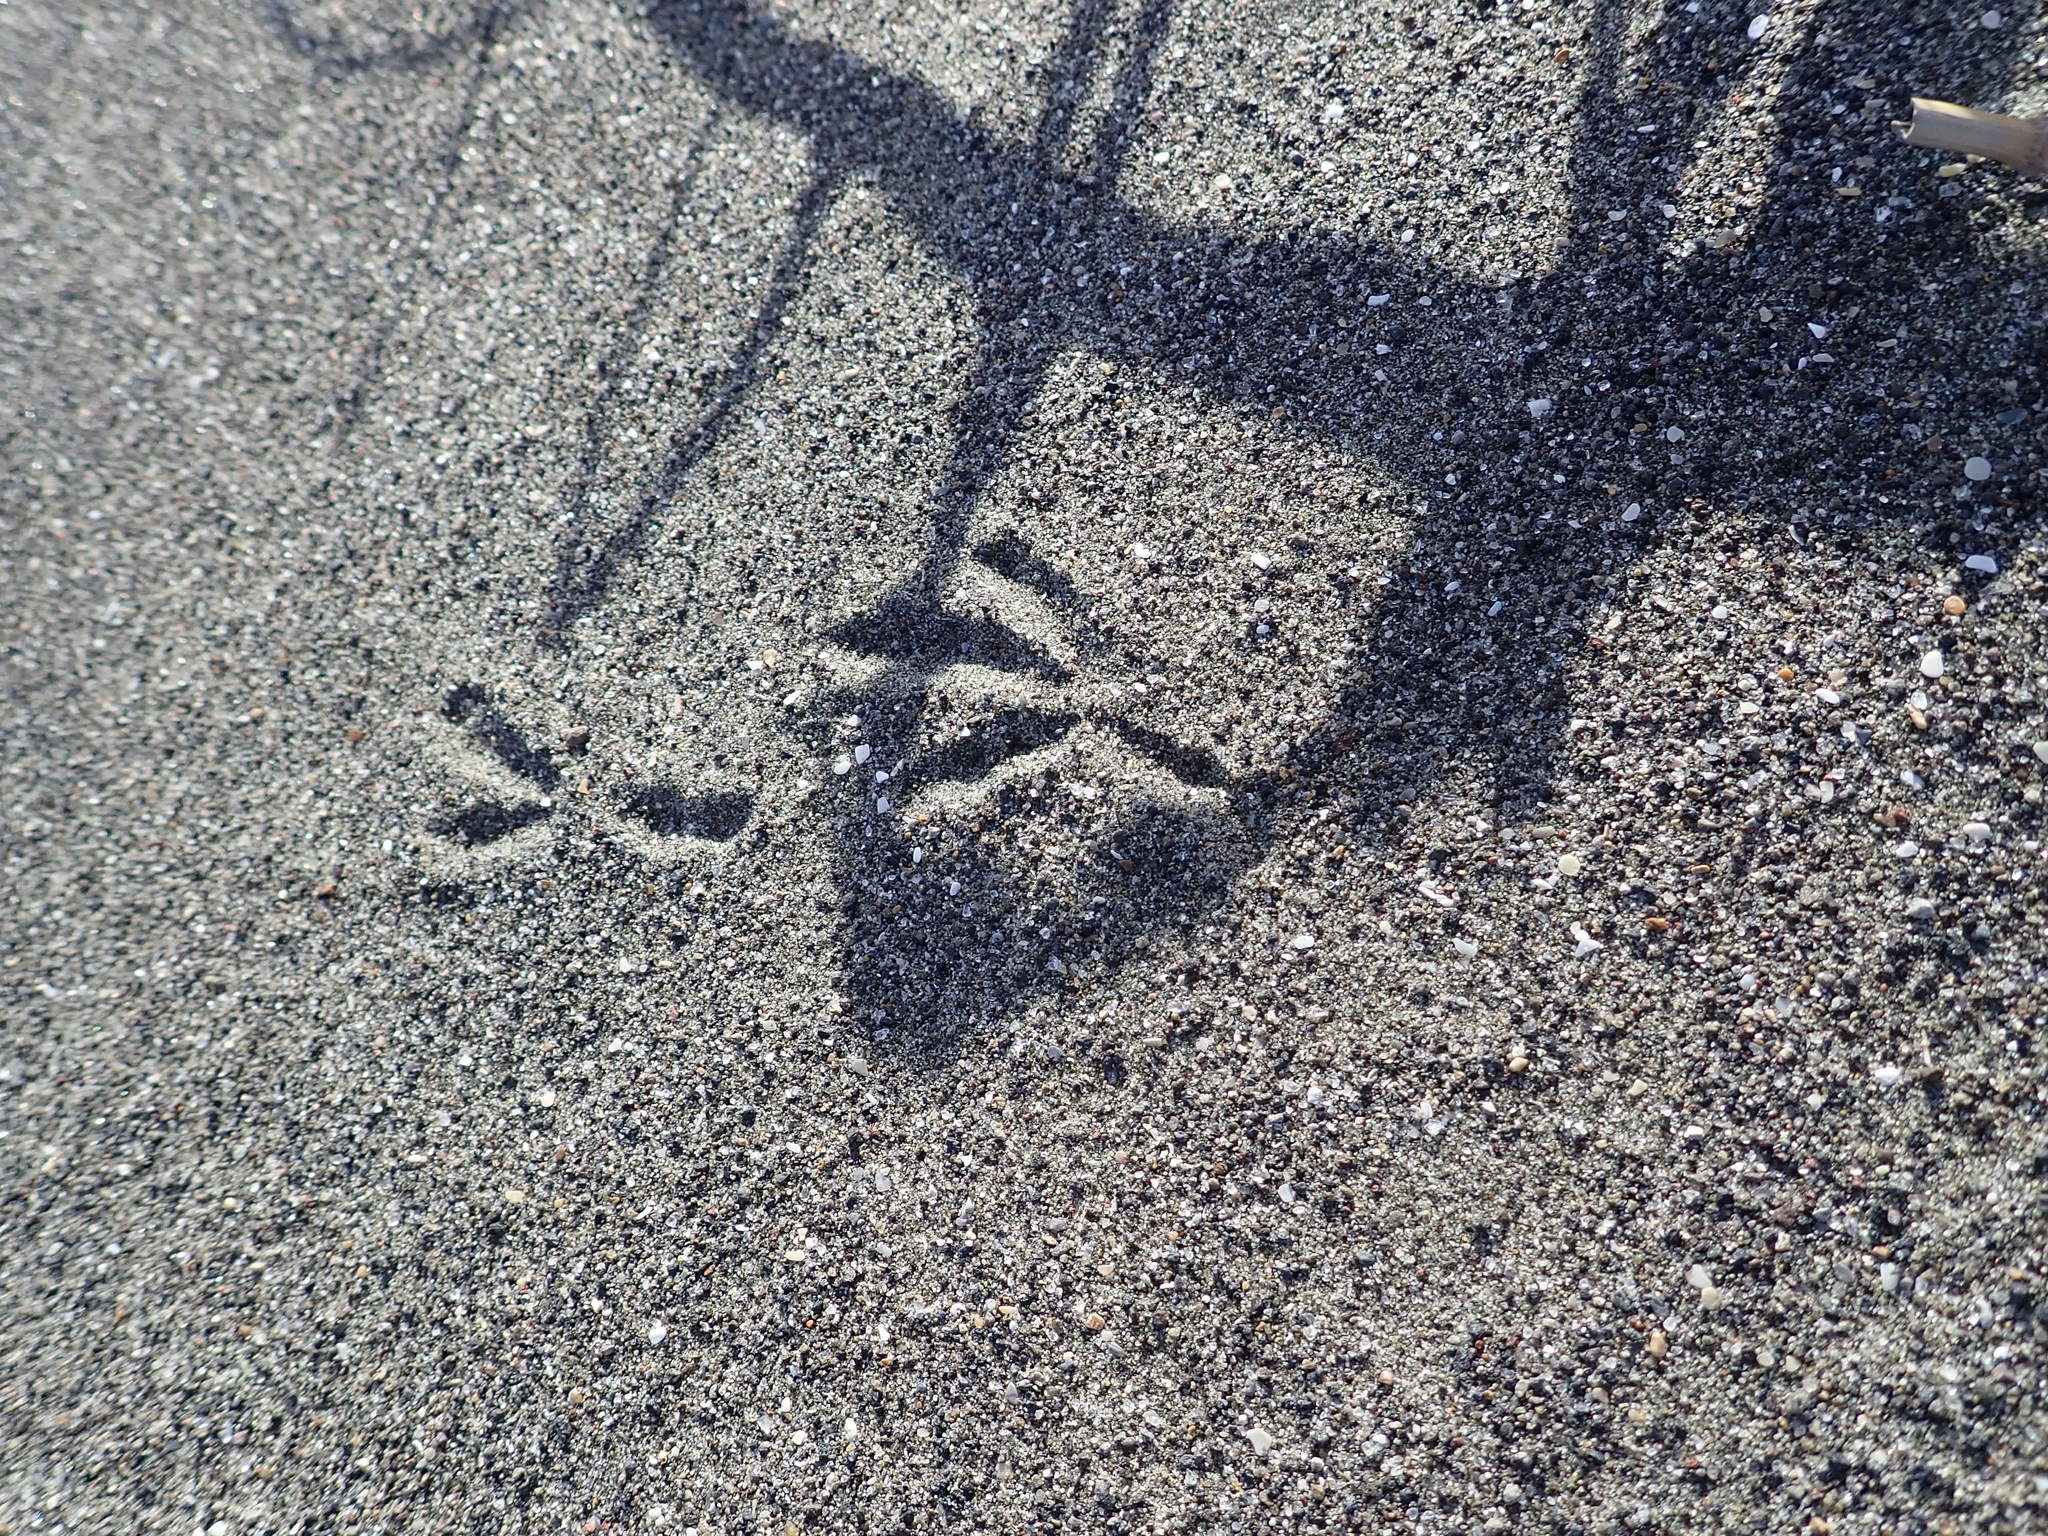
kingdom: Animalia
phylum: Chordata
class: Aves
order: Passeriformes
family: Cracticidae
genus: Gymnorhina
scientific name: Gymnorhina tibicen
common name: Australian magpie
